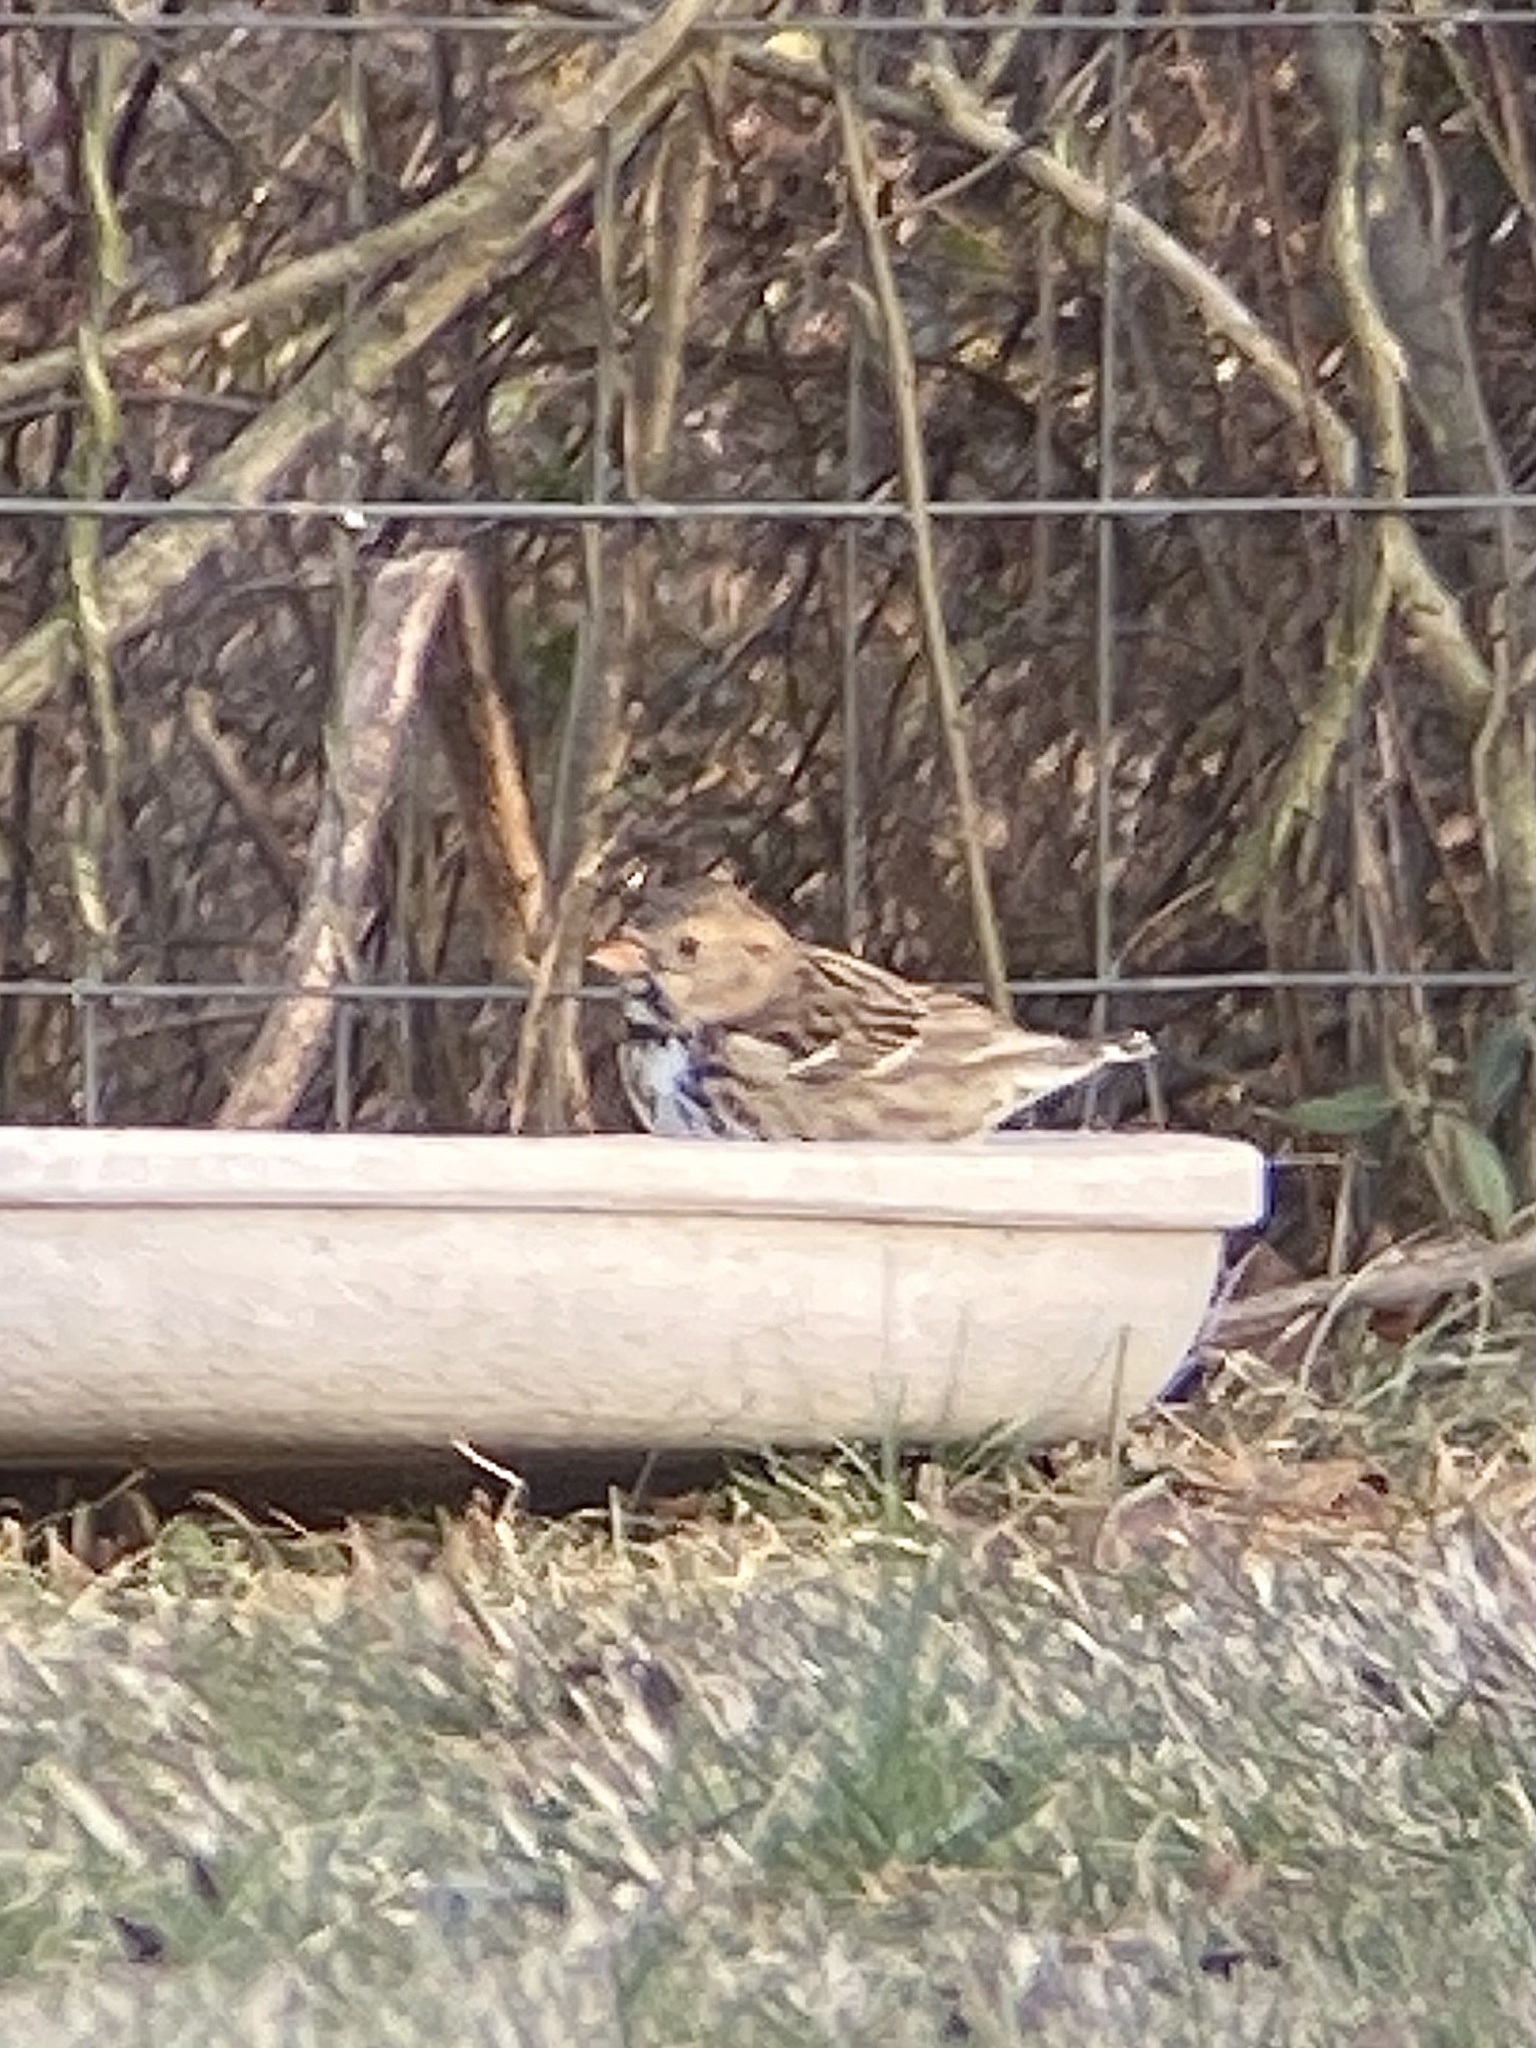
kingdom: Animalia
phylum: Chordata
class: Aves
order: Passeriformes
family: Passerellidae
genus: Zonotrichia
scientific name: Zonotrichia querula
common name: Harris's sparrow
